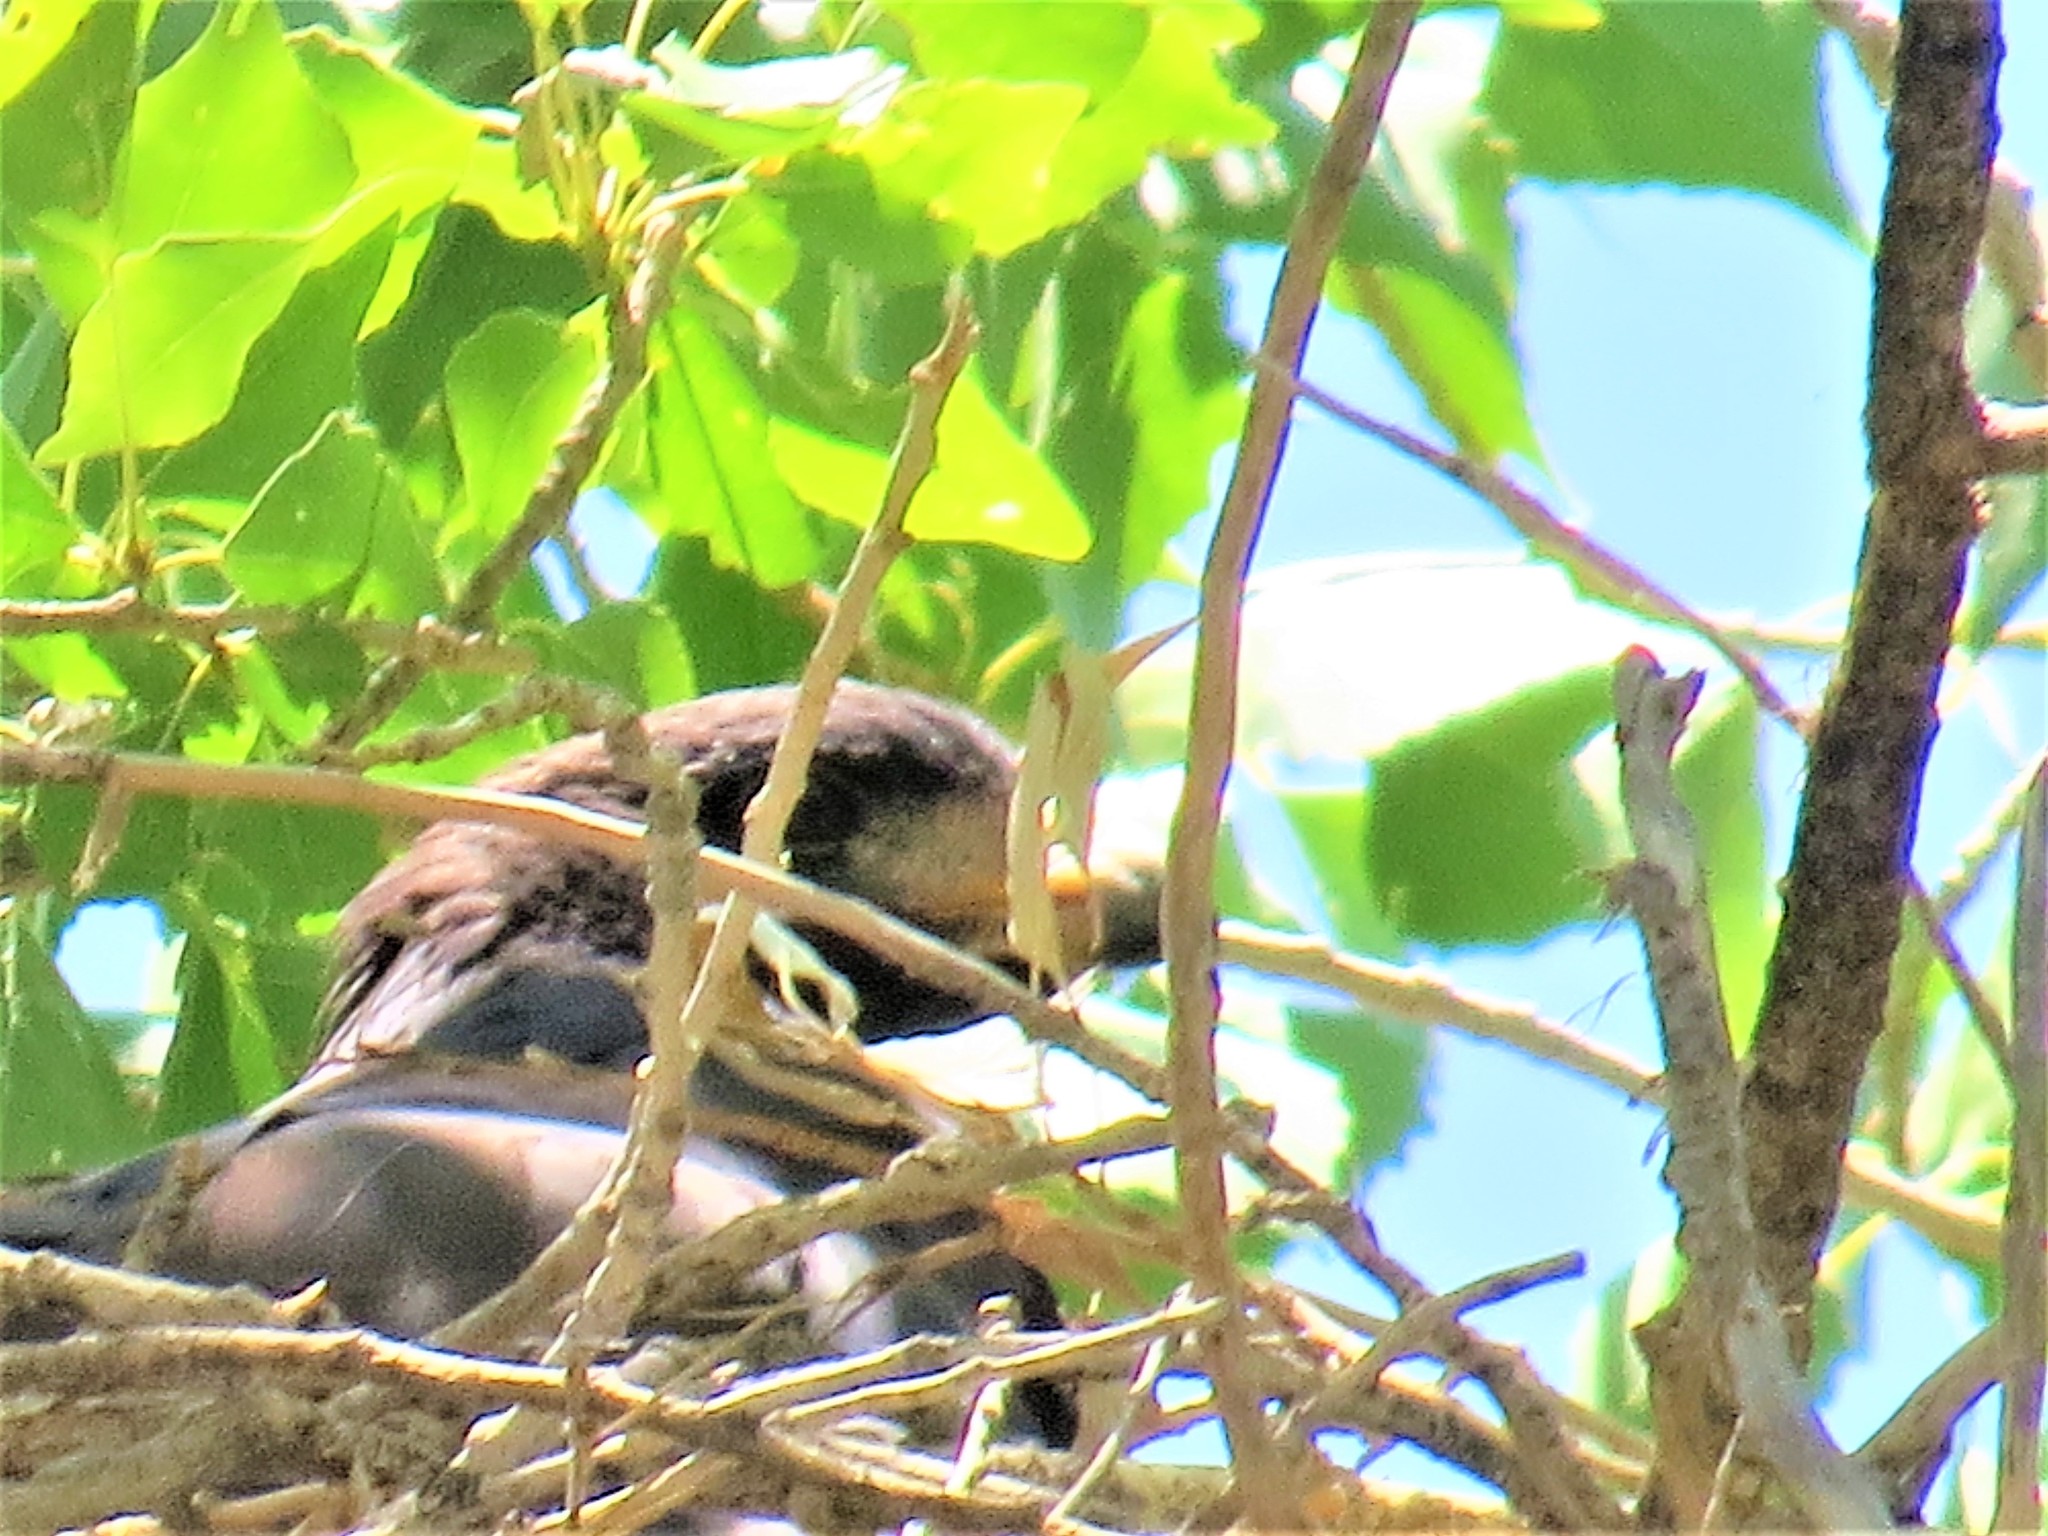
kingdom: Animalia
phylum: Chordata
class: Aves
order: Accipitriformes
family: Accipitridae
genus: Buteogallus
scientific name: Buteogallus anthracinus
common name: Common black hawk
